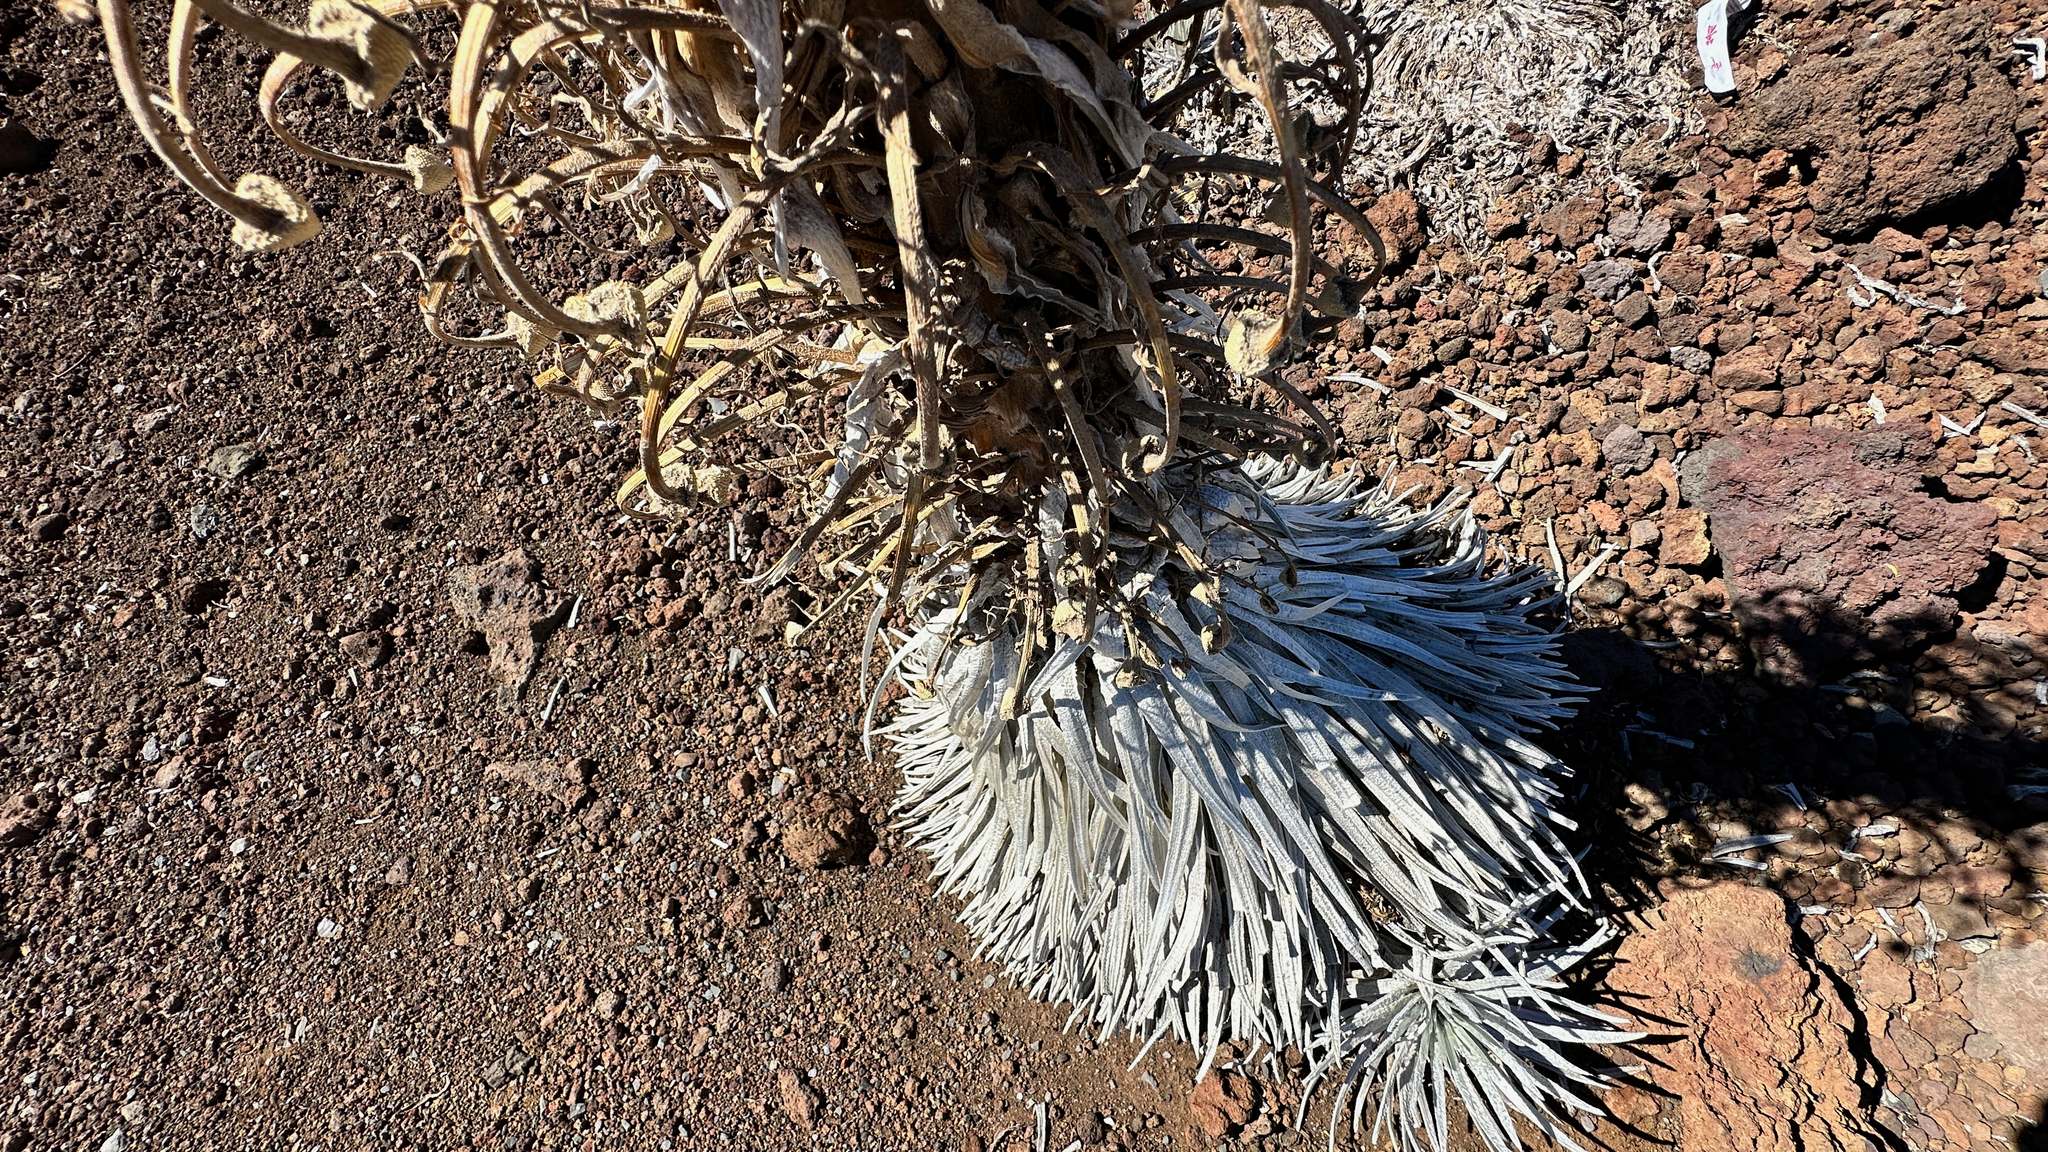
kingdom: Plantae
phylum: Tracheophyta
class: Magnoliopsida
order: Asterales
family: Asteraceae
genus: Argyroxiphium
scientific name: Argyroxiphium sandwicense
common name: Silversword
